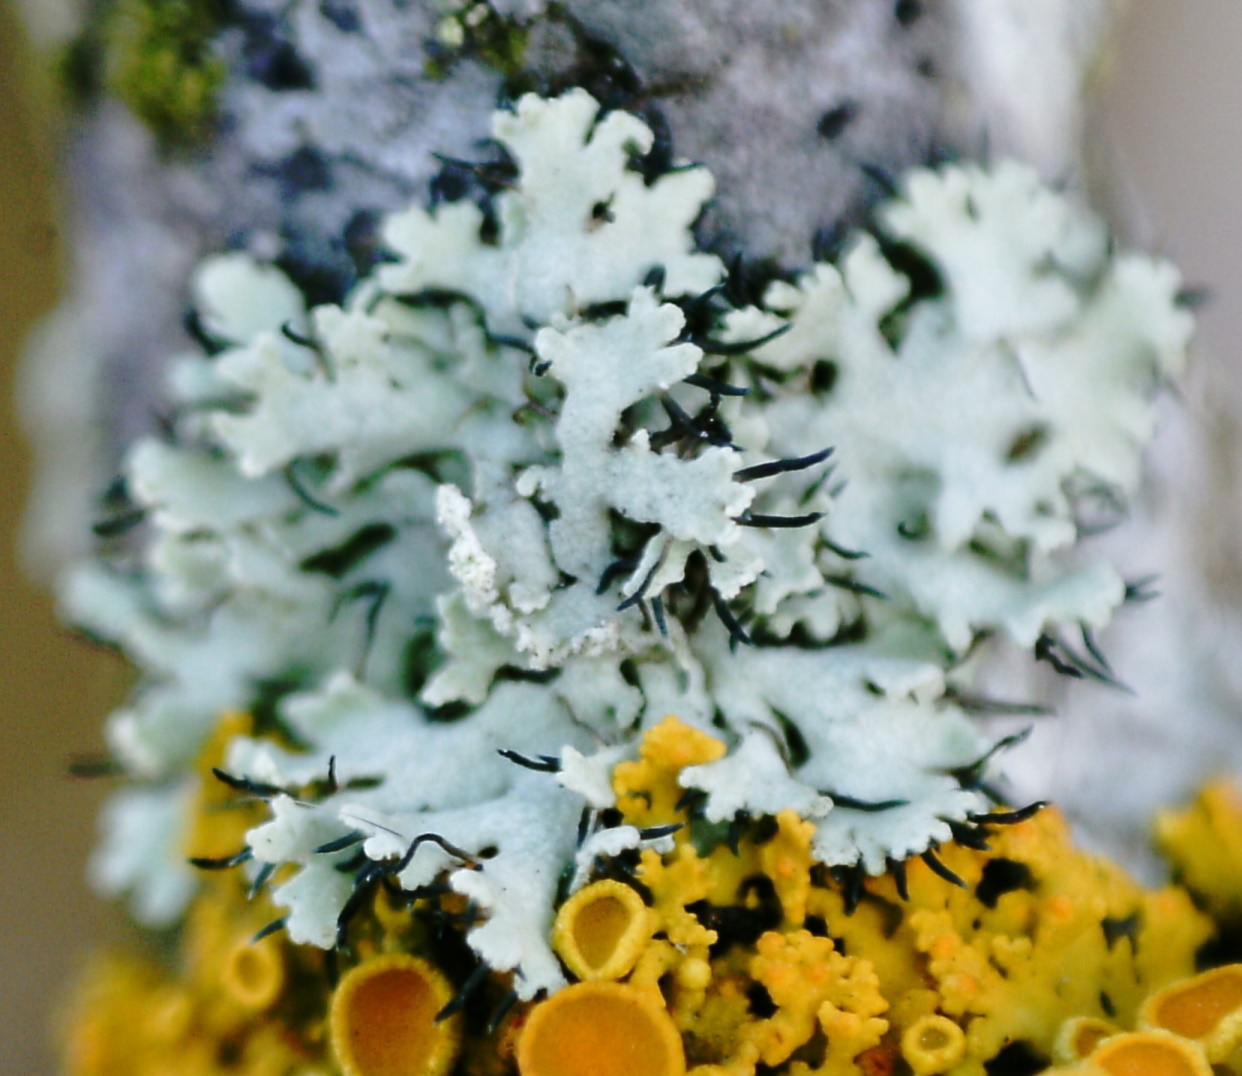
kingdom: Fungi
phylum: Ascomycota
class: Lecanoromycetes
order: Caliciales
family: Physciaceae
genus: Physcia
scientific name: Physcia tenella
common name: Fringed rosette lichen
